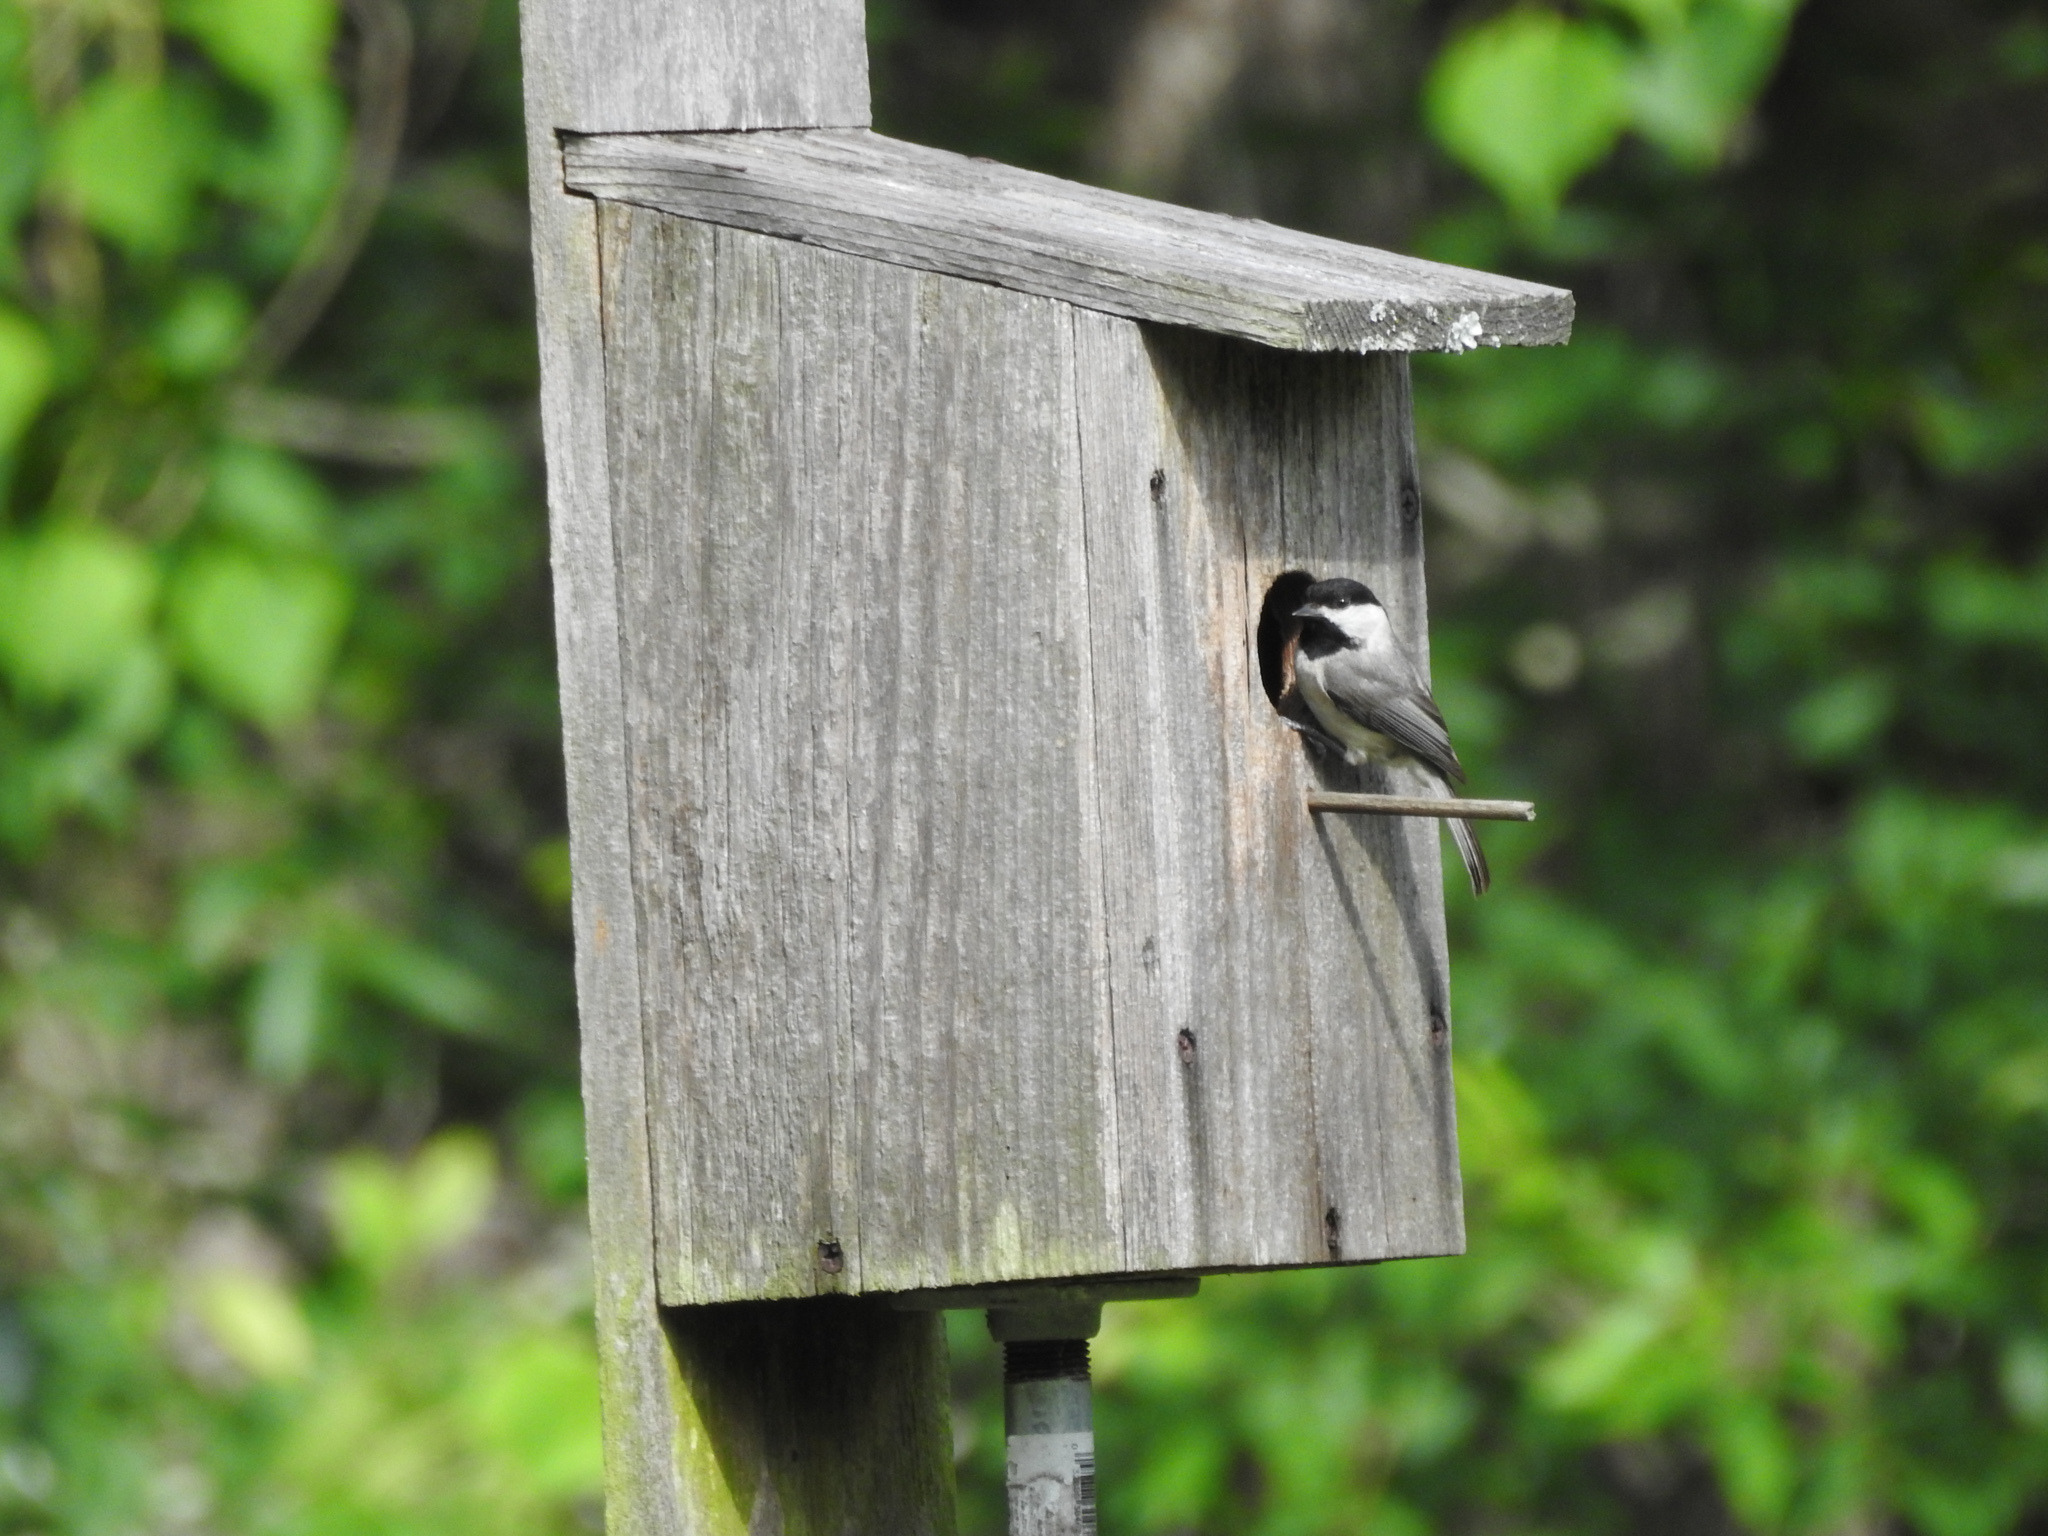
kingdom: Animalia
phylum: Chordata
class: Aves
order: Passeriformes
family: Paridae
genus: Poecile
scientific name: Poecile carolinensis
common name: Carolina chickadee
